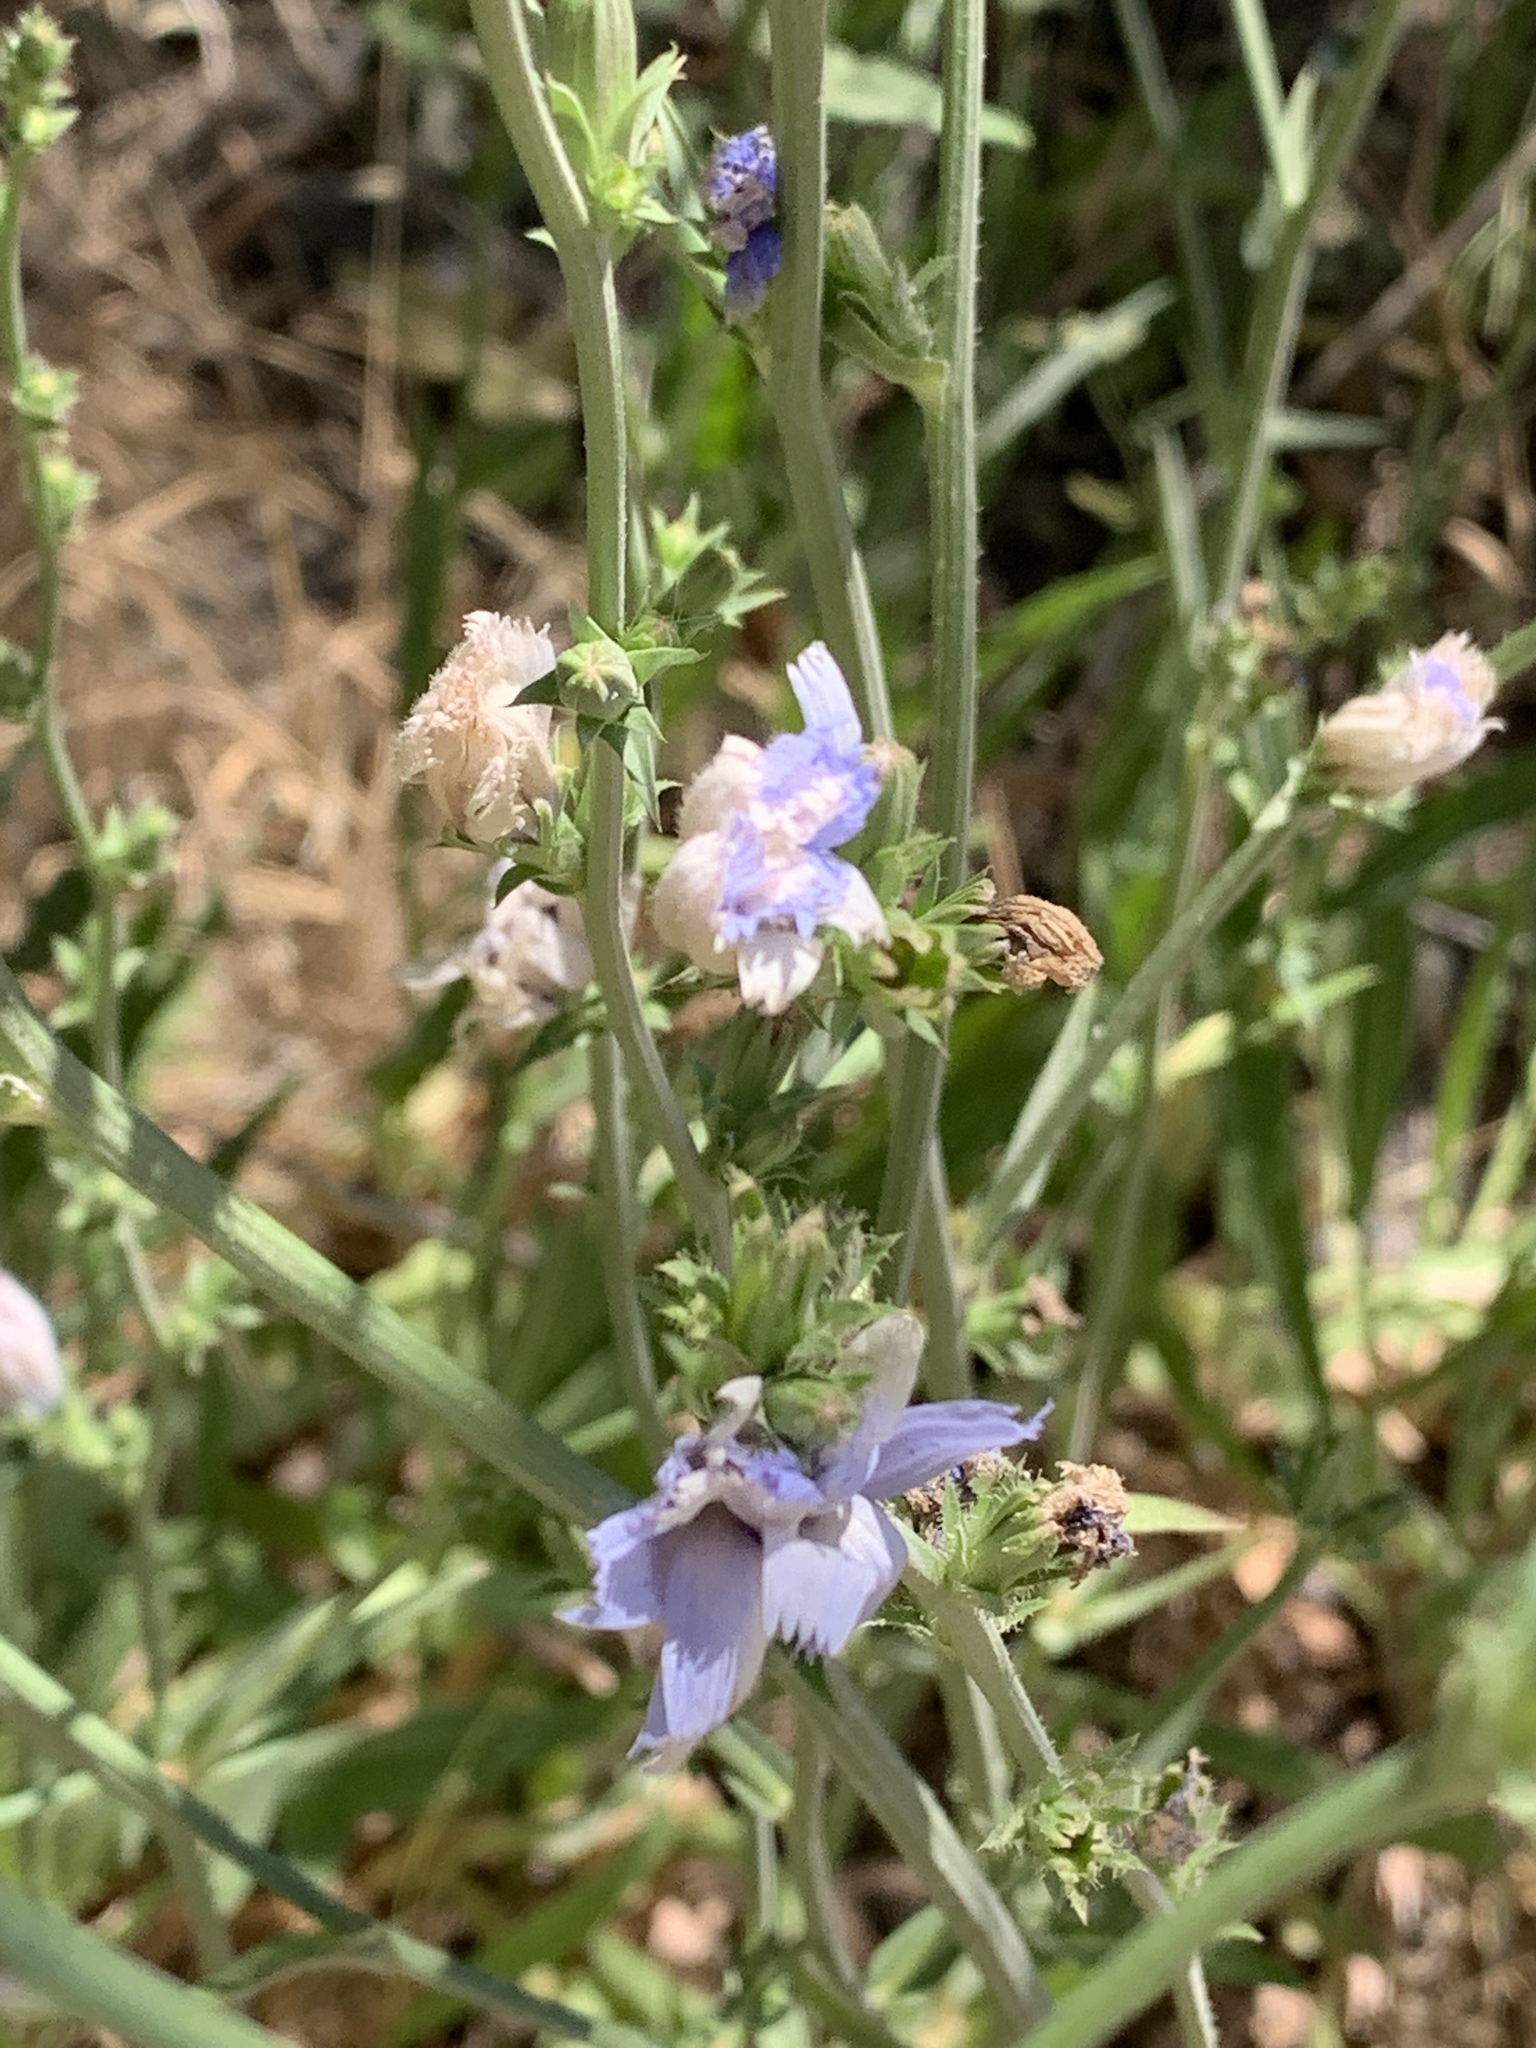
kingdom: Plantae
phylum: Tracheophyta
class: Magnoliopsida
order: Asterales
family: Asteraceae
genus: Cichorium
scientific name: Cichorium intybus
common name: Chicory
